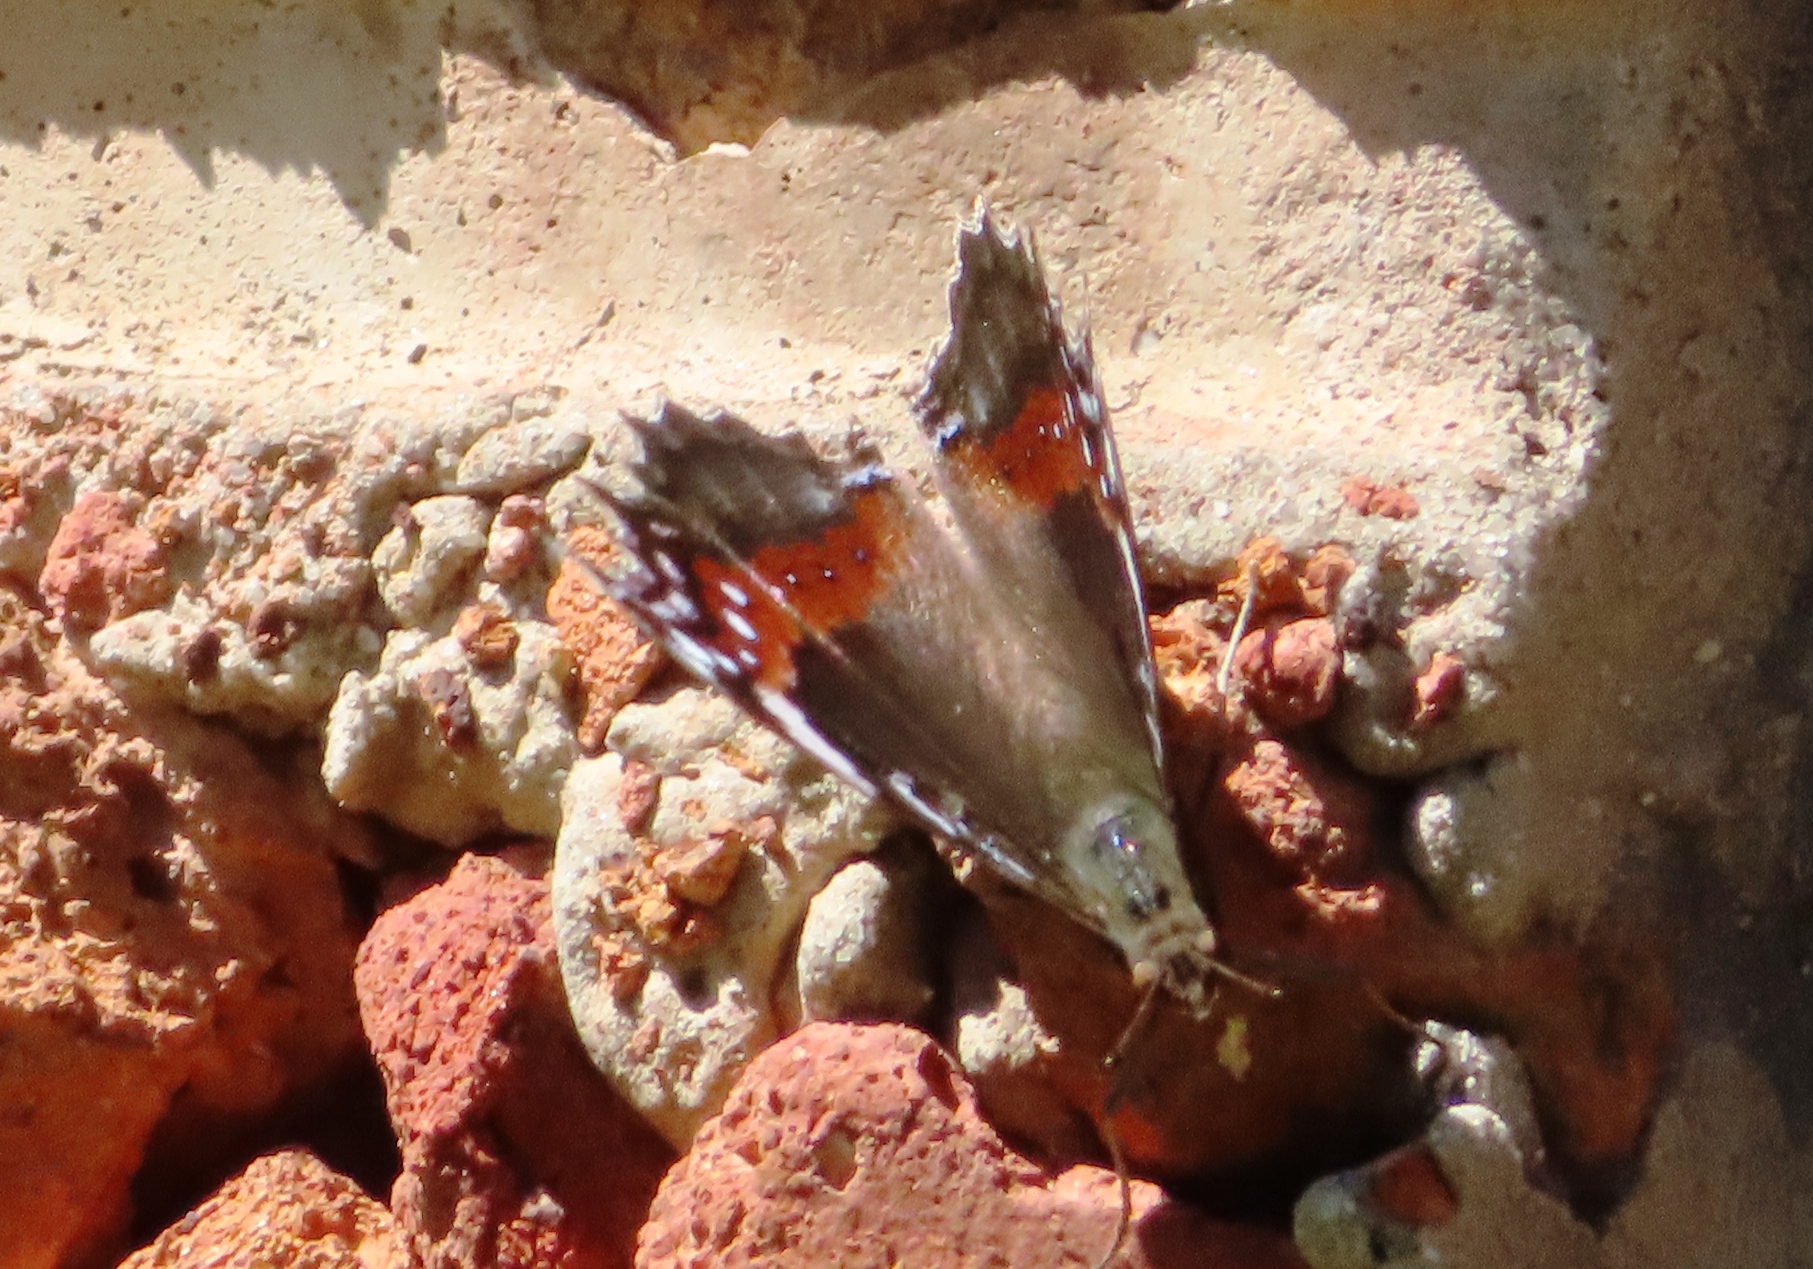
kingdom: Animalia
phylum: Arthropoda
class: Insecta
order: Lepidoptera
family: Nymphalidae
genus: Junonia
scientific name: Junonia archesia
